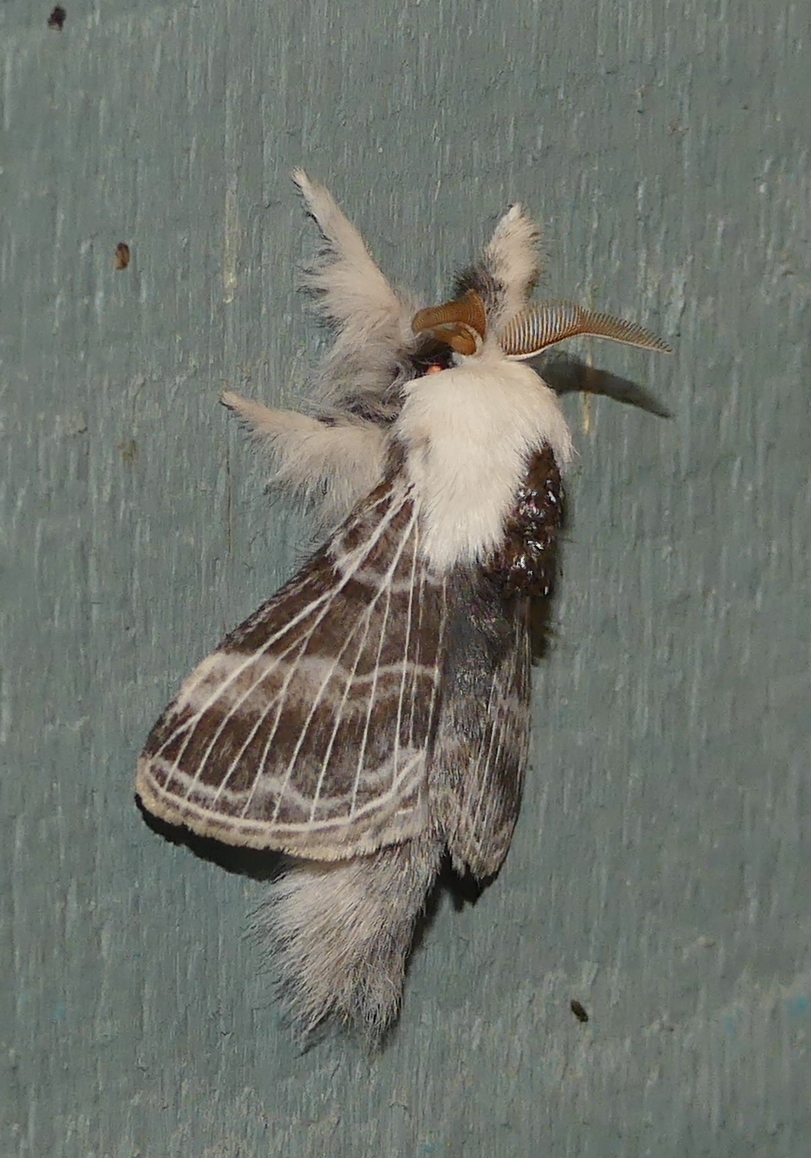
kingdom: Animalia
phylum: Arthropoda
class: Insecta
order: Lepidoptera
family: Lasiocampidae
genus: Tolype
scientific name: Tolype velleda
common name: Large tolype moth
